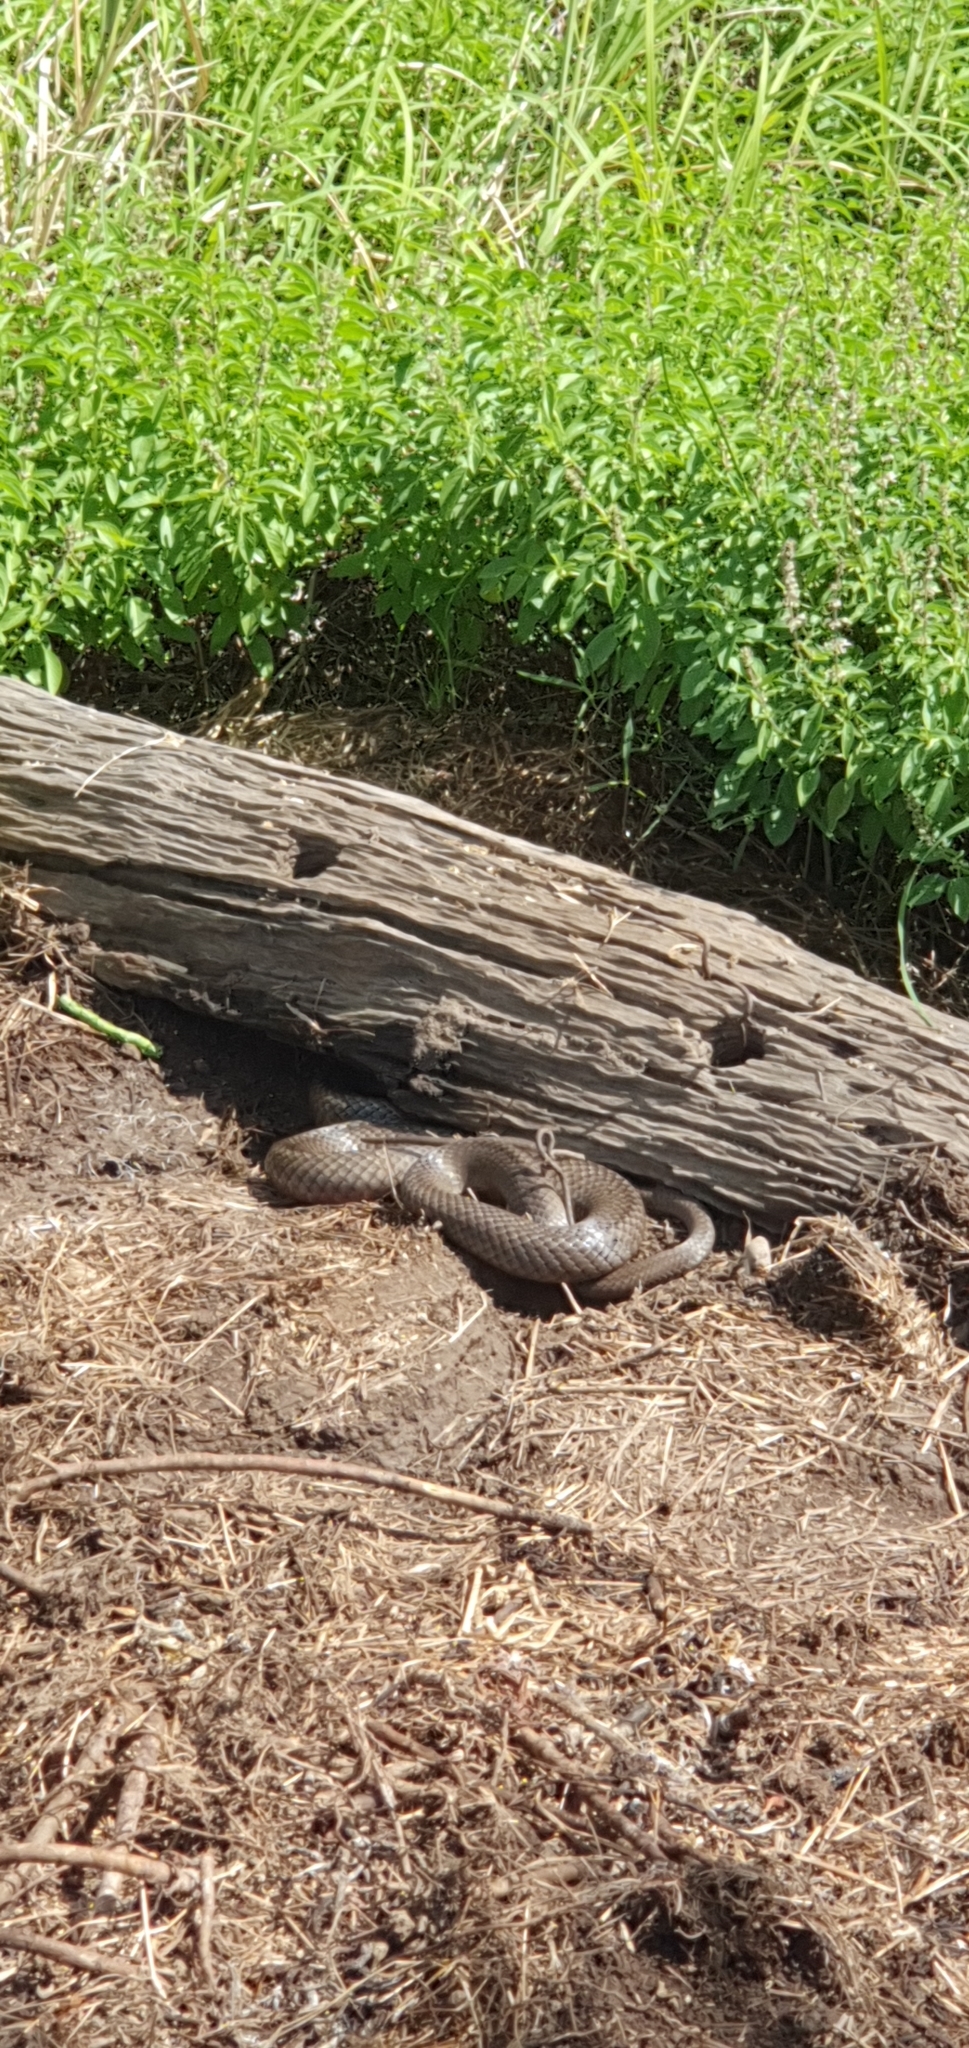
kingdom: Animalia
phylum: Chordata
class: Squamata
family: Elapidae
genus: Pseudonaja
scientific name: Pseudonaja textilis
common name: Eastern brown snake
